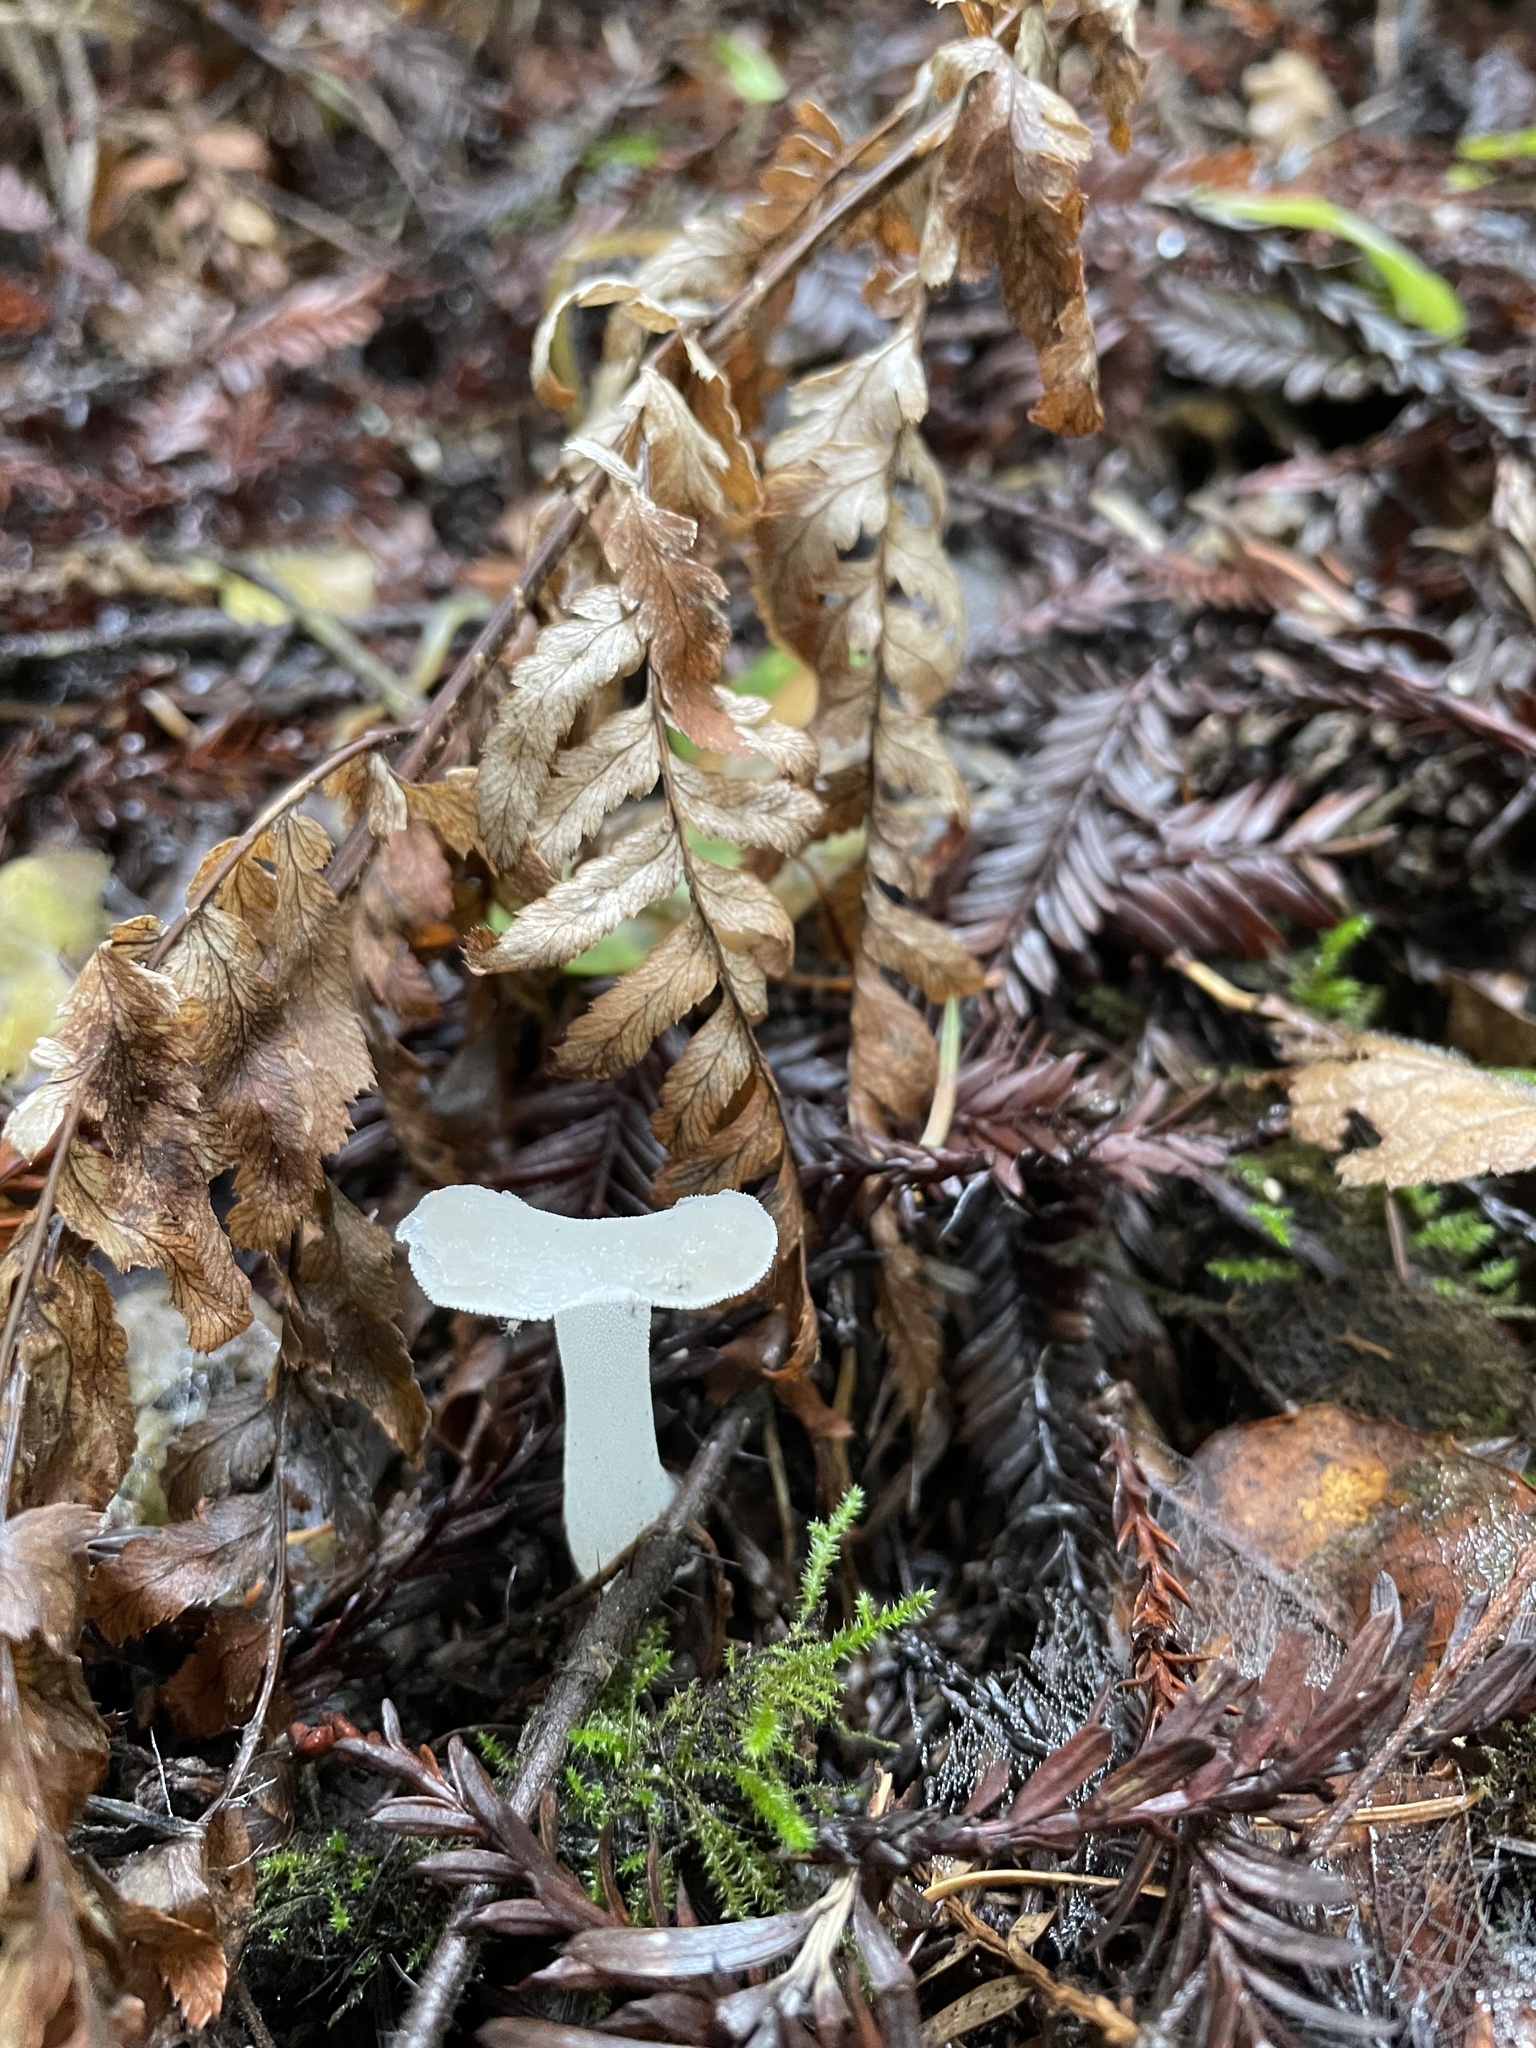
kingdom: Fungi
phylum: Basidiomycota
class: Agaricomycetes
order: Auriculariales
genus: Pseudohydnum
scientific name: Pseudohydnum gelatinosum
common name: Jelly tongue
